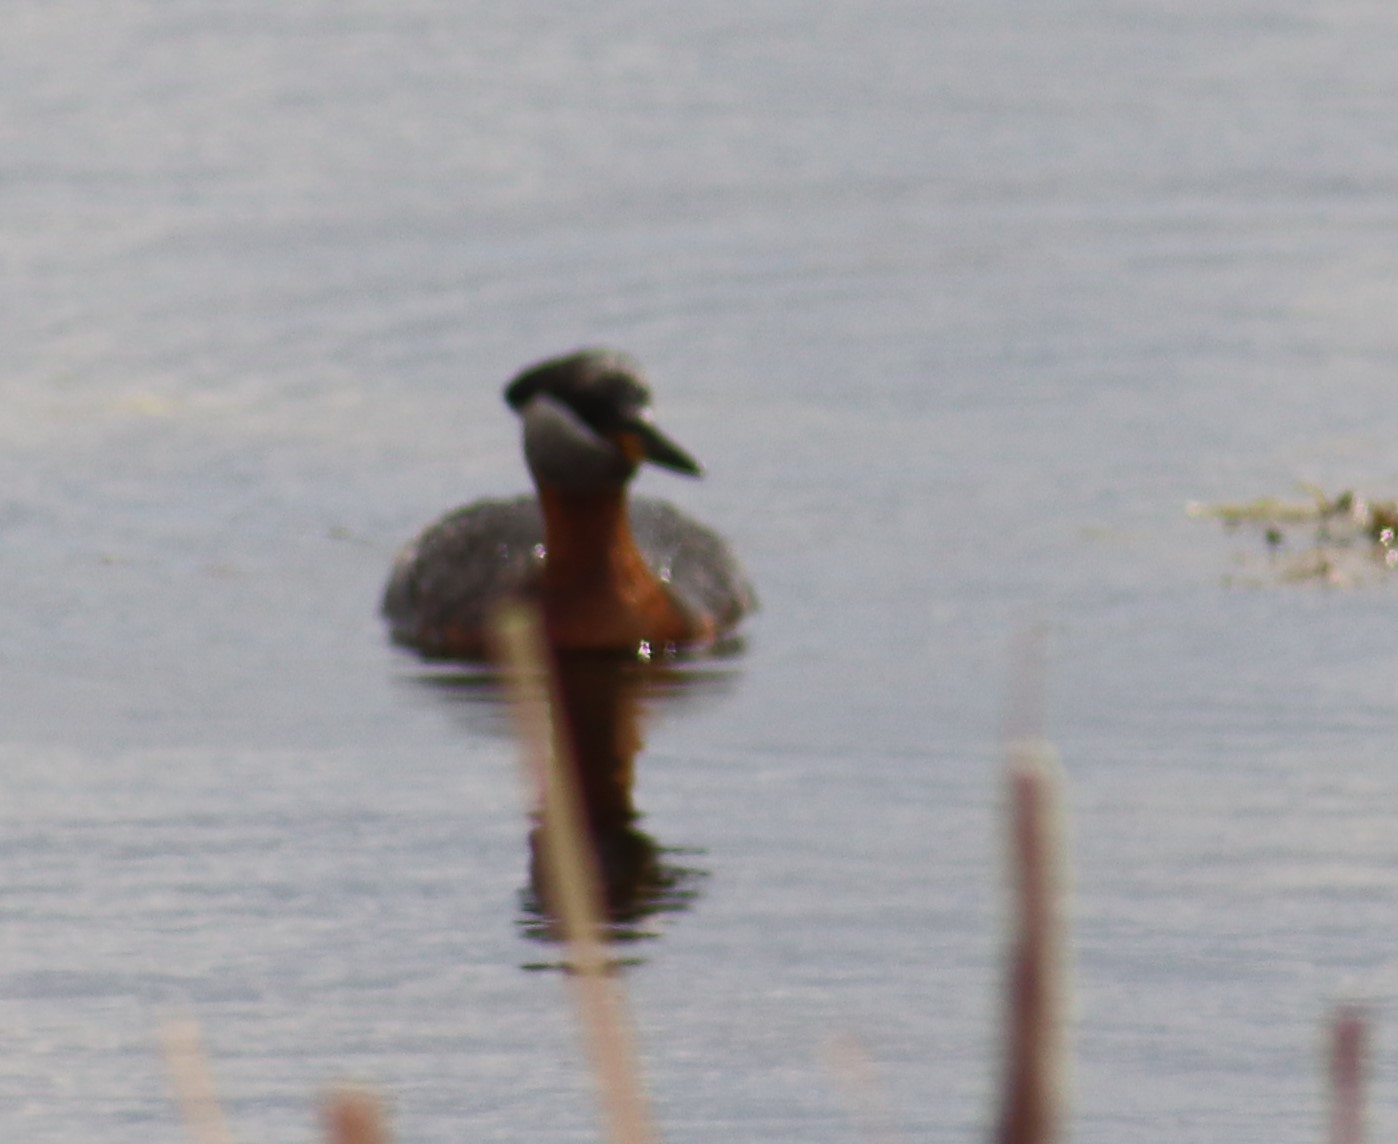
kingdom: Animalia
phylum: Chordata
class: Aves
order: Podicipediformes
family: Podicipedidae
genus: Podiceps
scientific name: Podiceps grisegena
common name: Red-necked grebe
